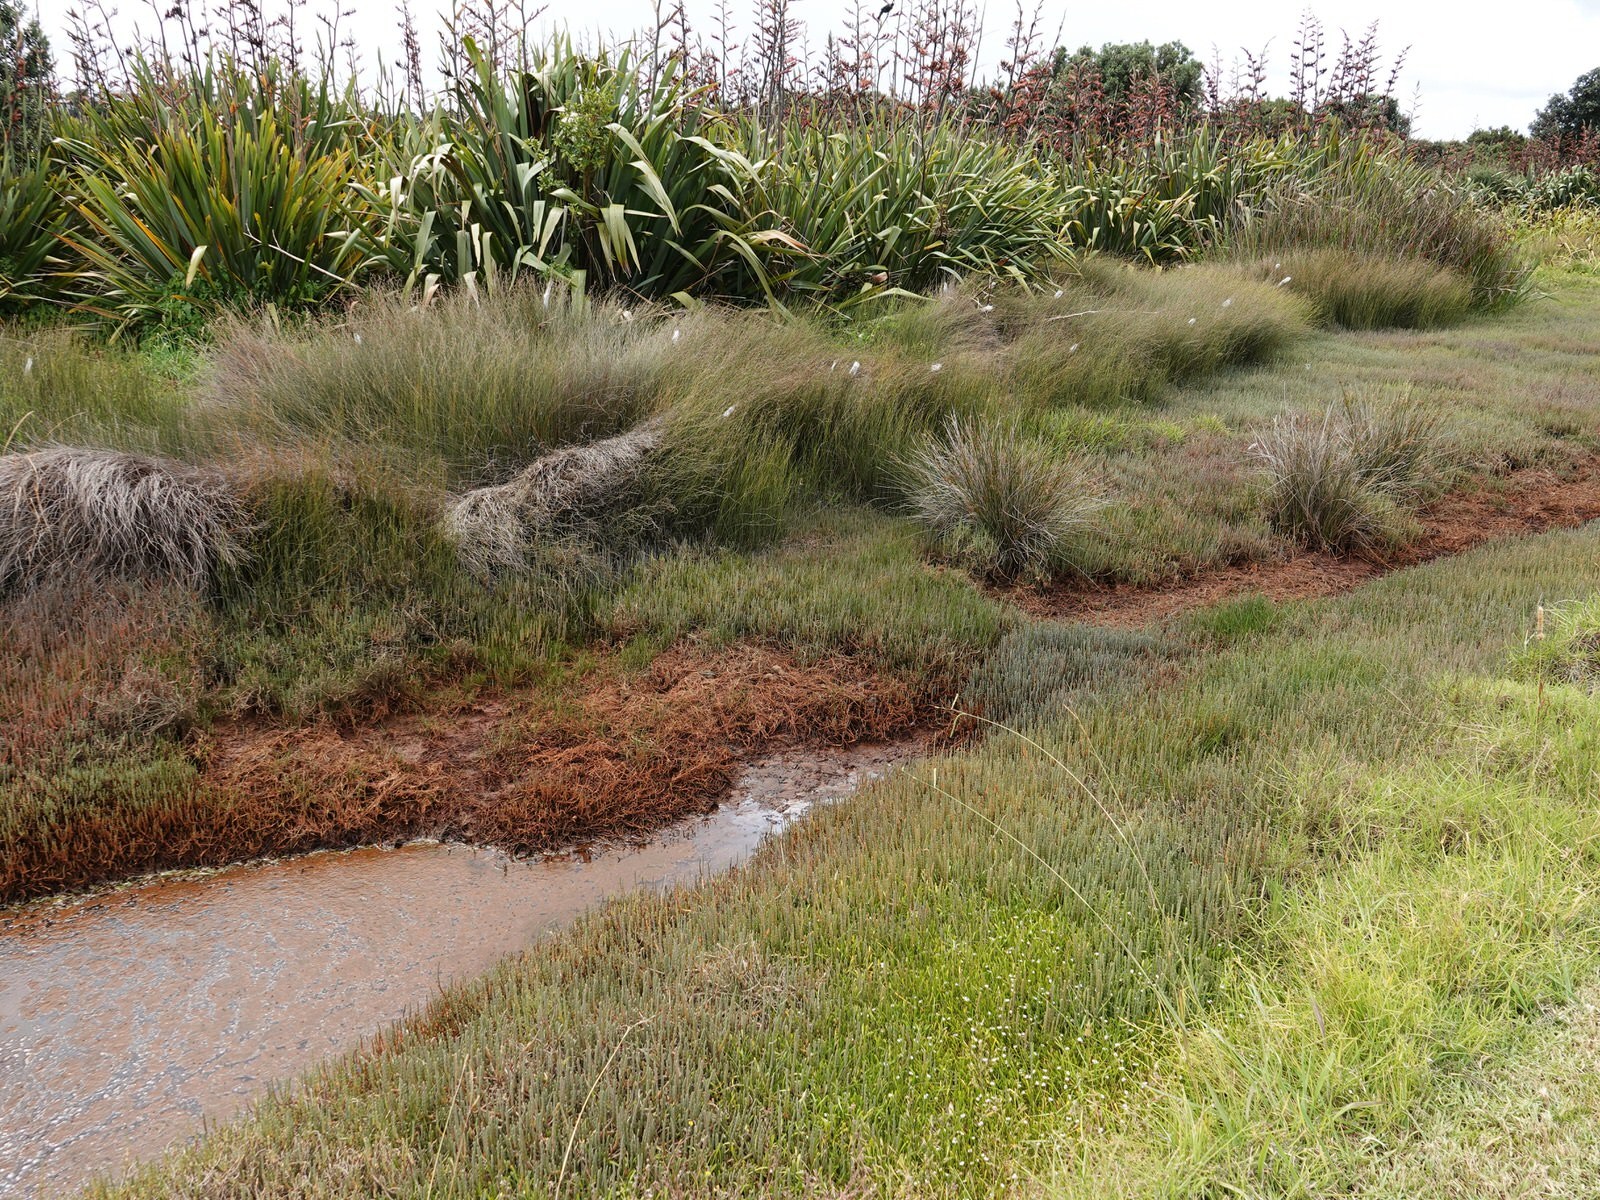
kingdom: Plantae
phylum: Tracheophyta
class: Magnoliopsida
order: Asterales
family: Goodeniaceae
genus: Goodenia
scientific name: Goodenia radicans
